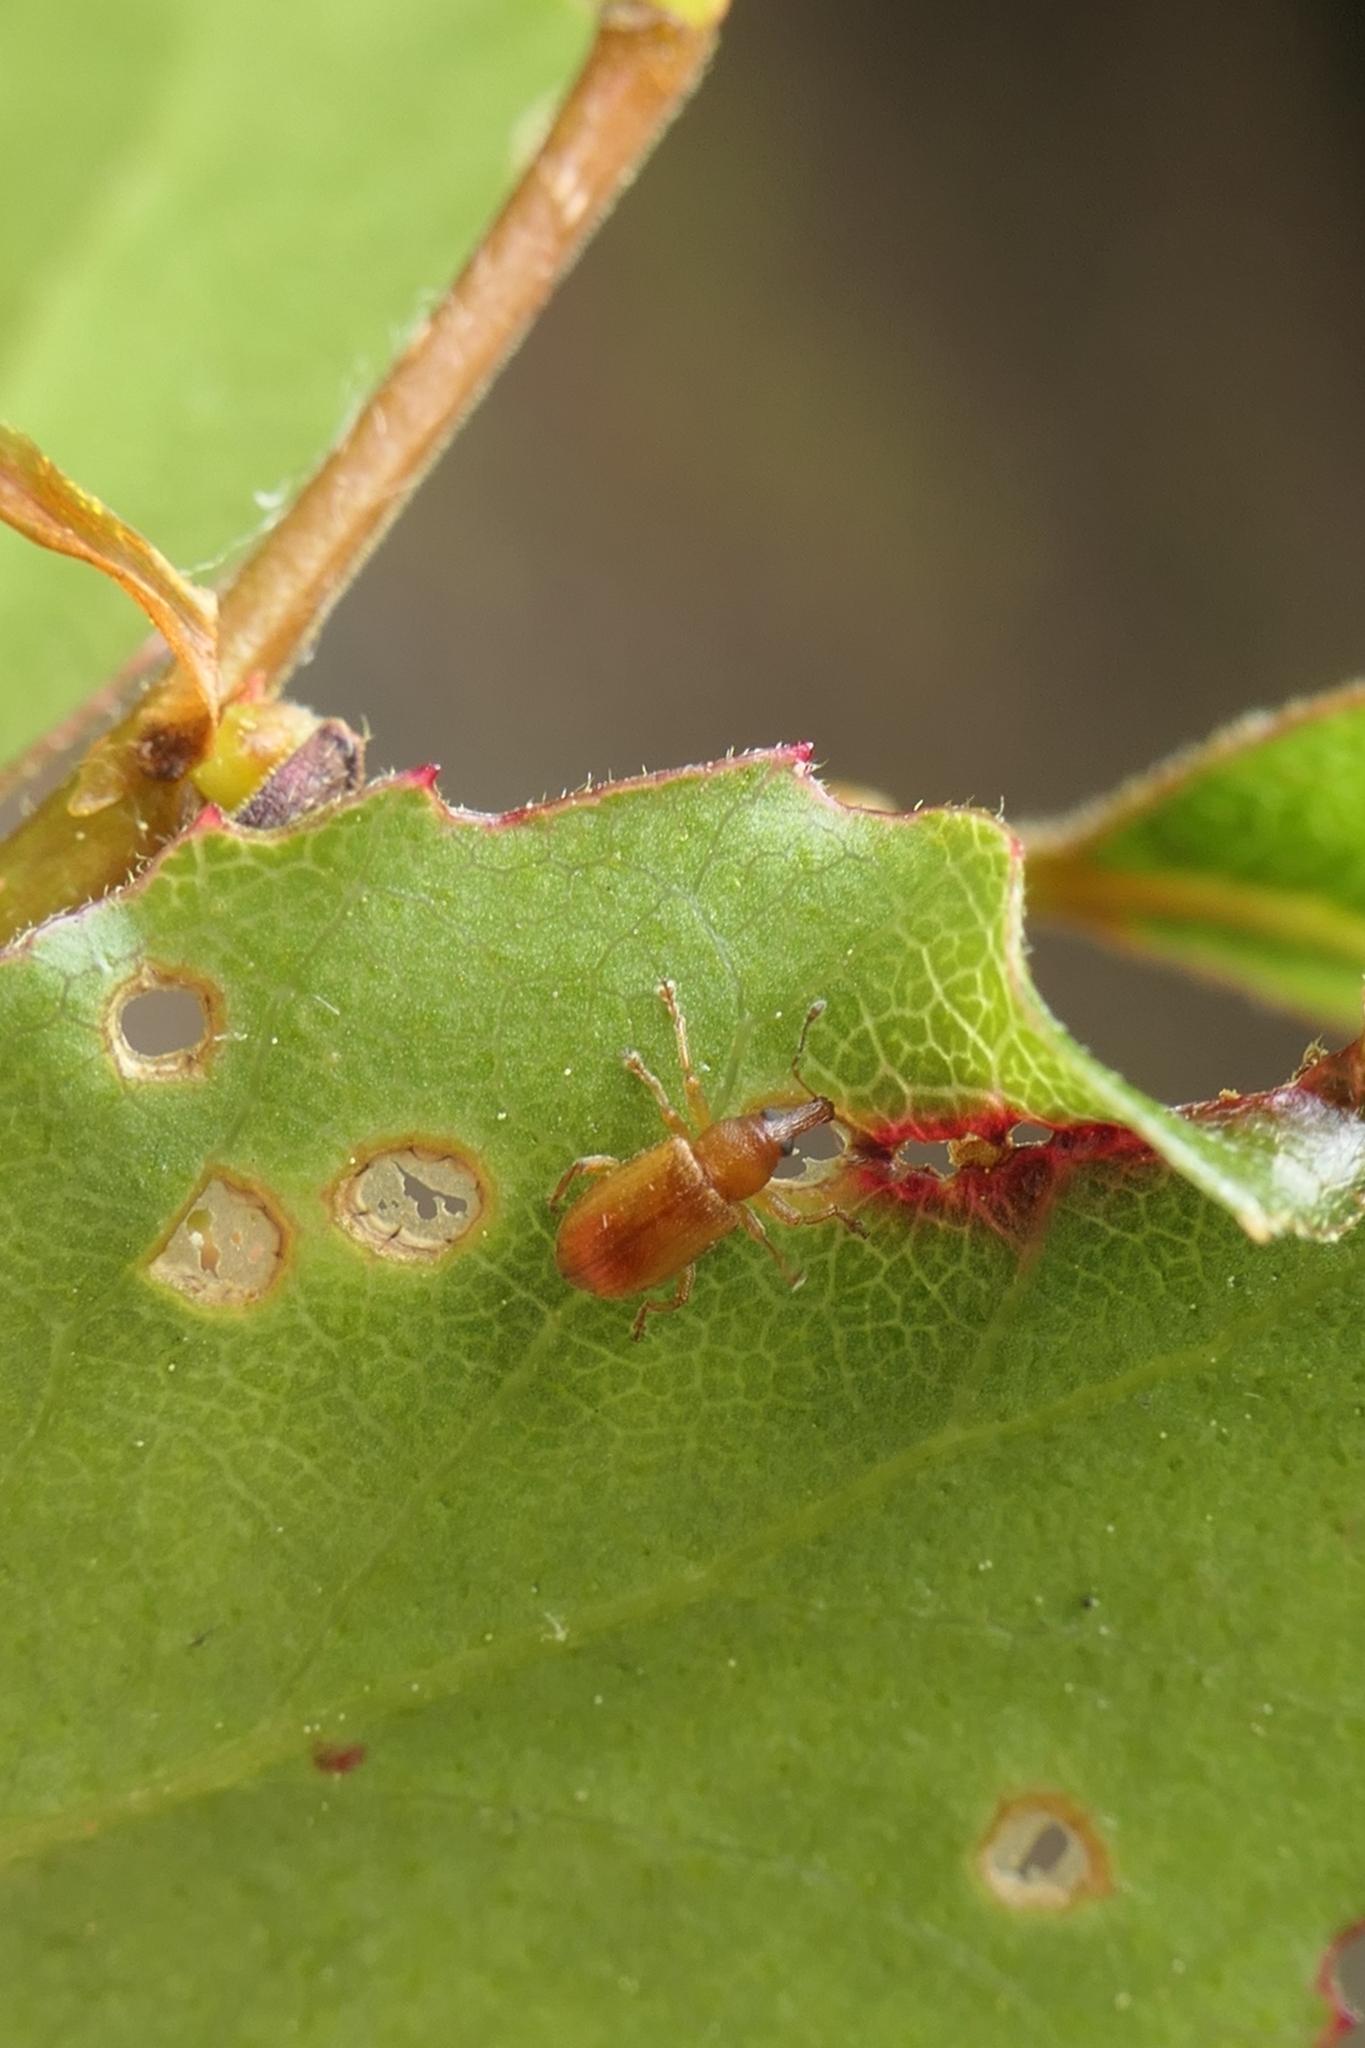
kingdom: Animalia
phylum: Arthropoda
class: Insecta
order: Coleoptera
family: Curculionidae
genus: Neomycta
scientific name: Neomycta pulicaris
